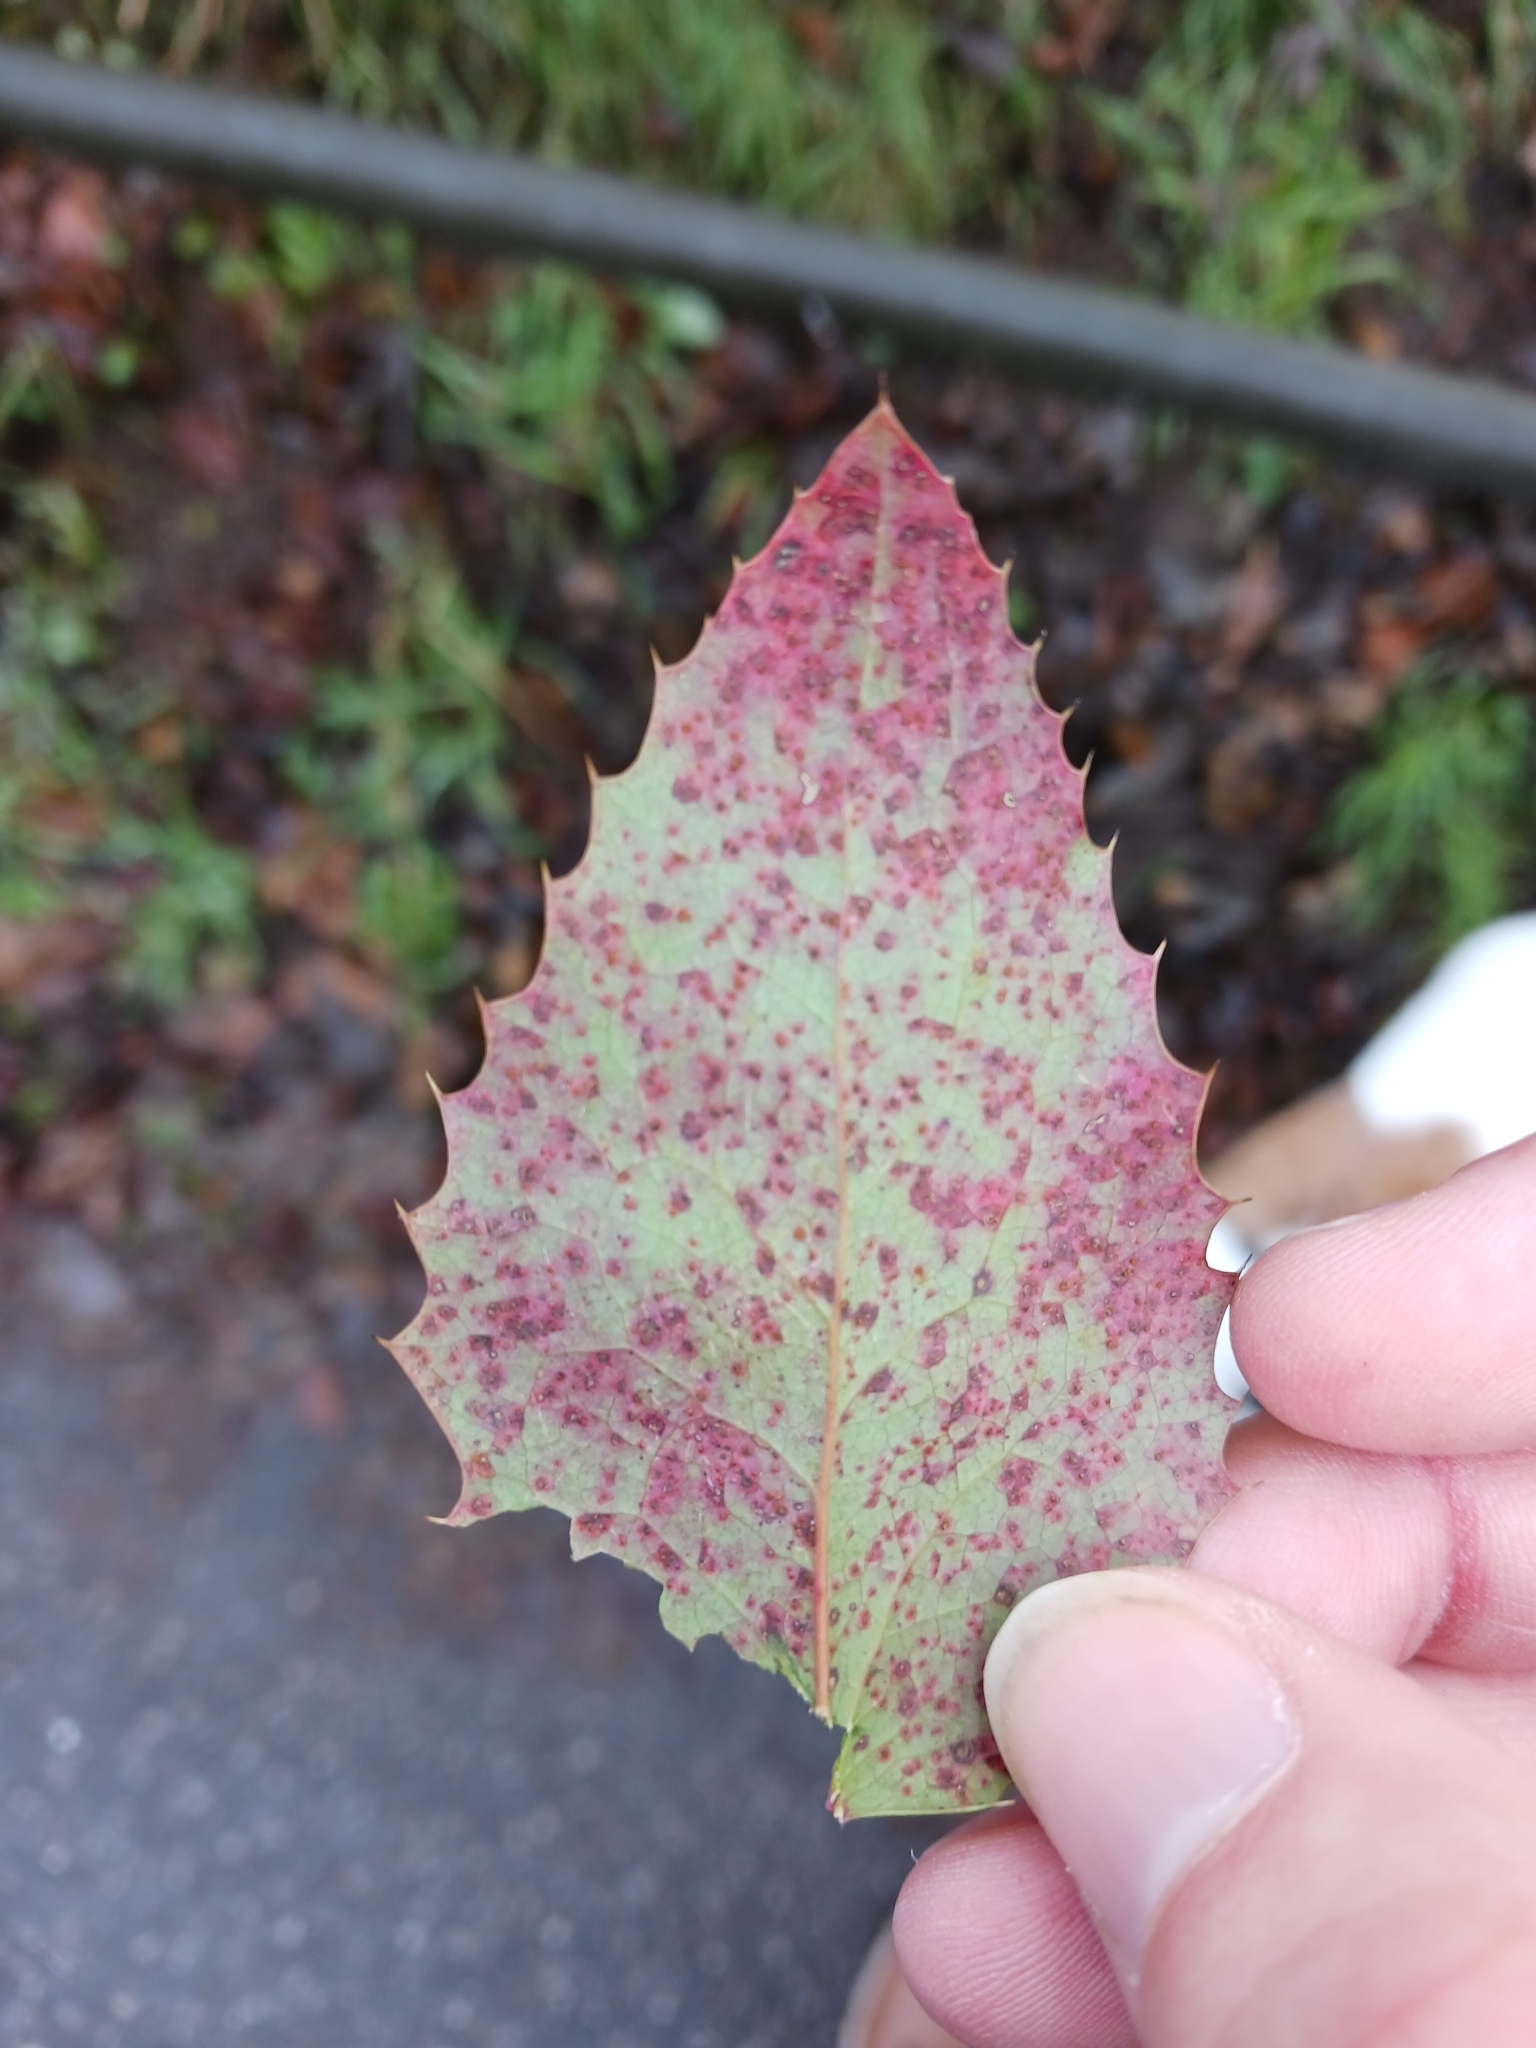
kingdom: Fungi
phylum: Basidiomycota
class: Pucciniomycetes
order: Pucciniales
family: Pucciniaceae
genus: Cumminsiella
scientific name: Cumminsiella mirabilissima
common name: Mahonia rust
